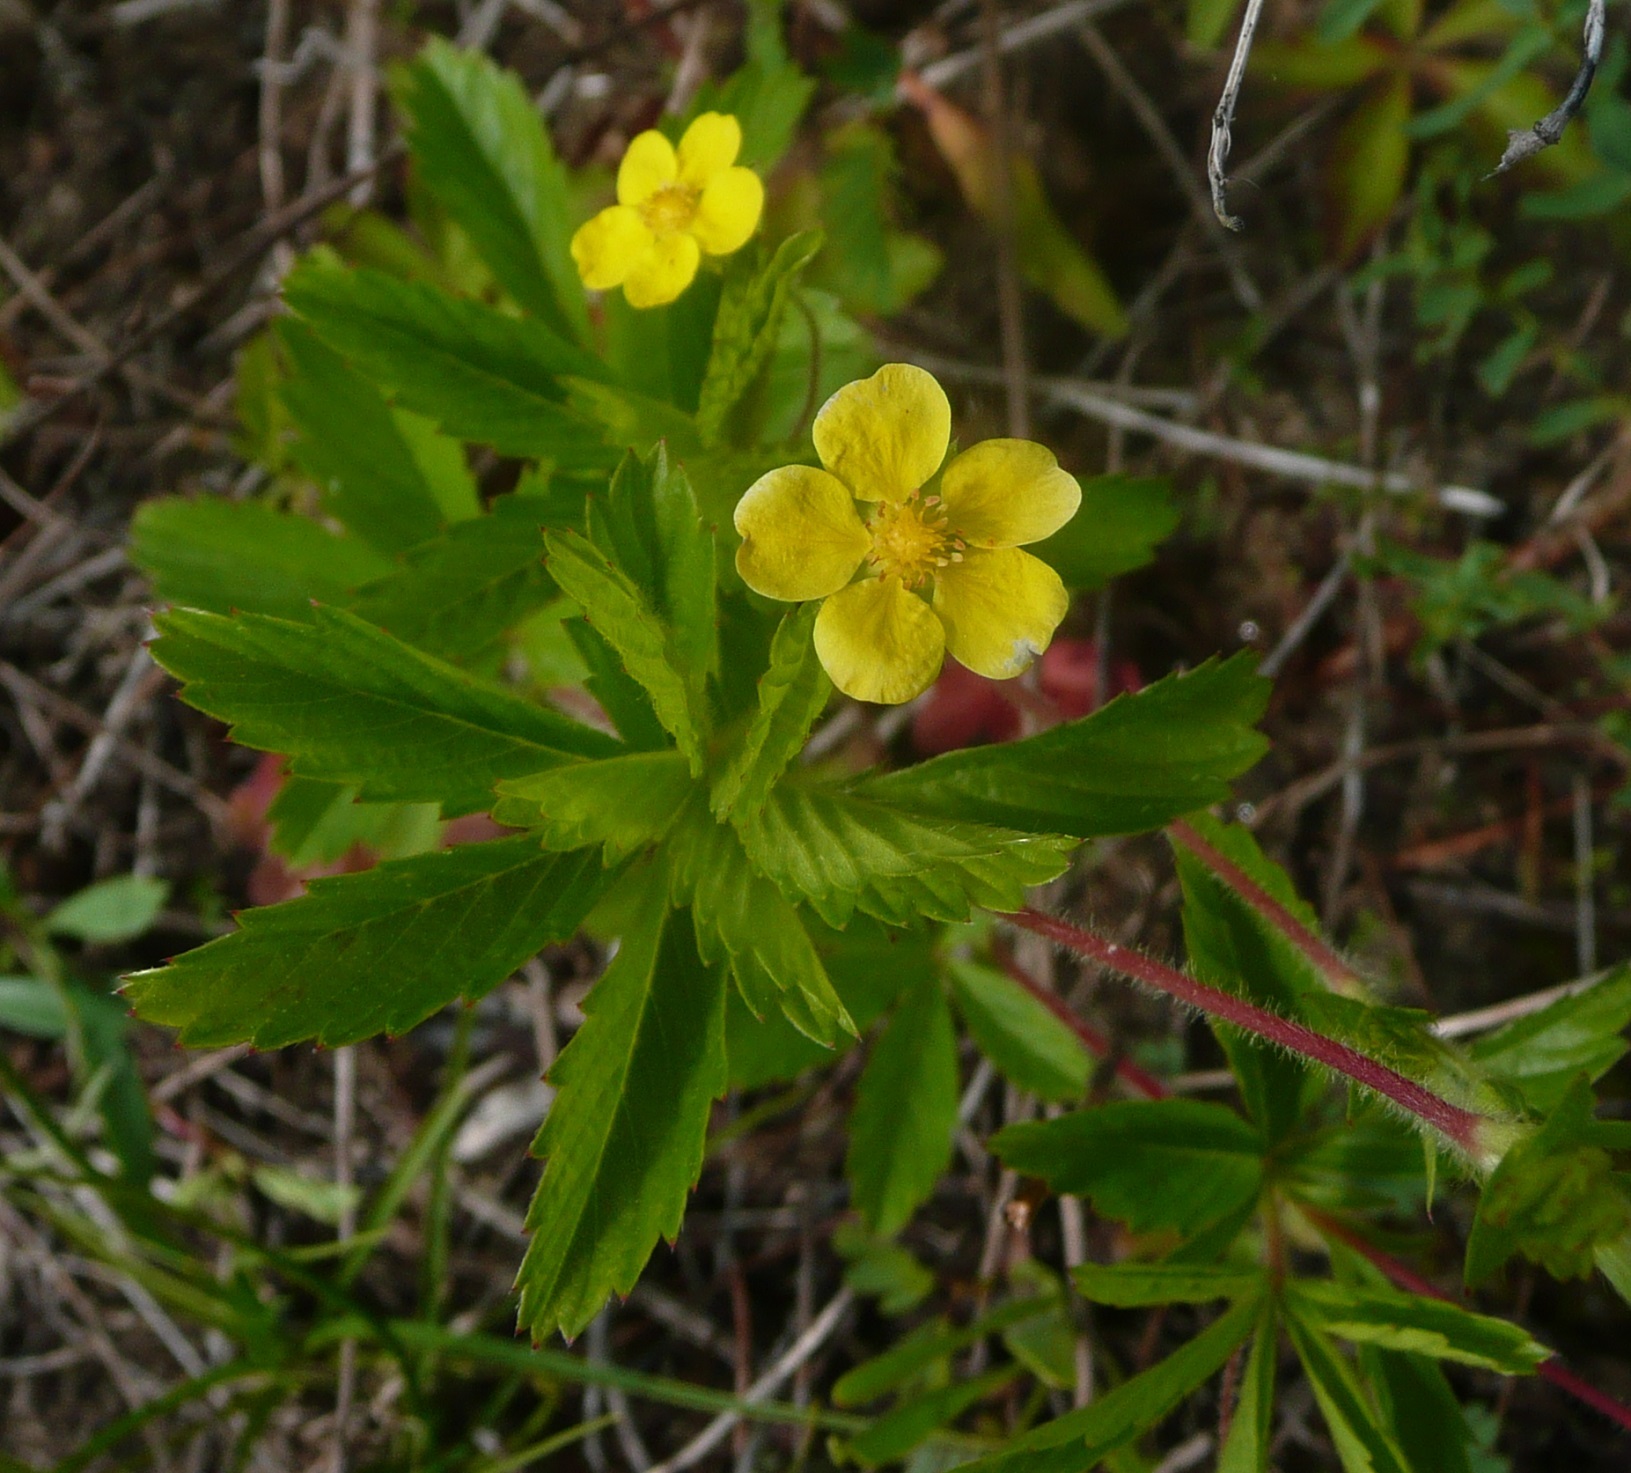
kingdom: Plantae
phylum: Tracheophyta
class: Magnoliopsida
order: Rosales
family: Rosaceae
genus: Potentilla
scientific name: Potentilla simplex
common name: Old field cinquefoil
